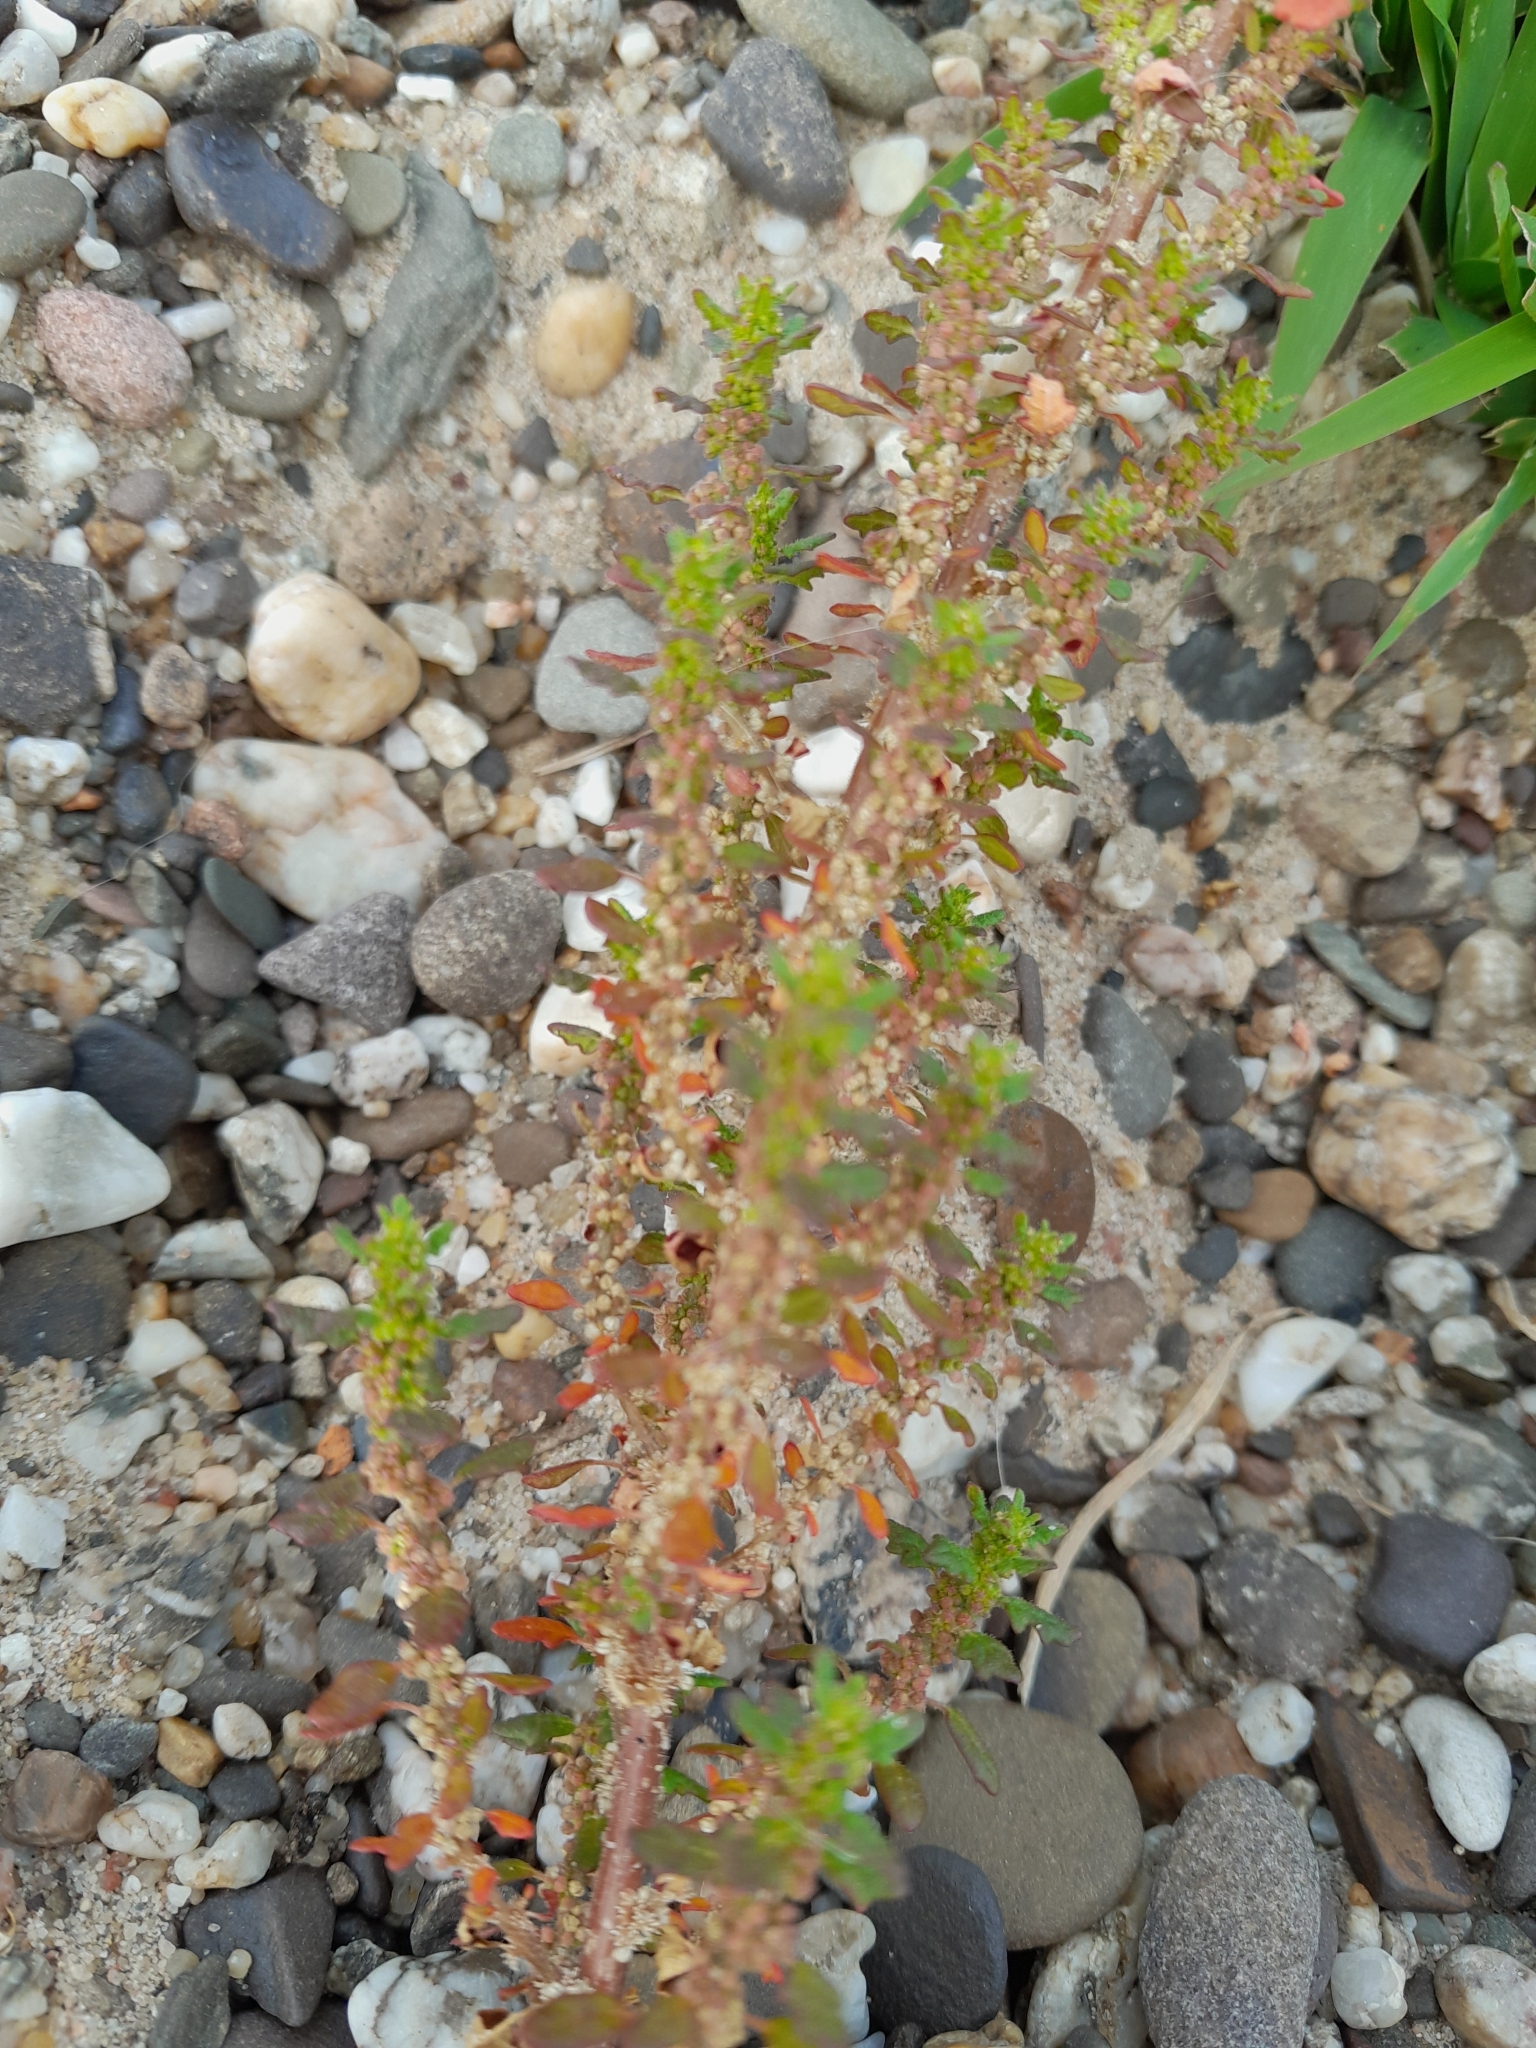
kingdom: Plantae
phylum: Tracheophyta
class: Magnoliopsida
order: Caryophyllales
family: Amaranthaceae
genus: Dysphania
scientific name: Dysphania pumilio
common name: Clammy goosefoot
